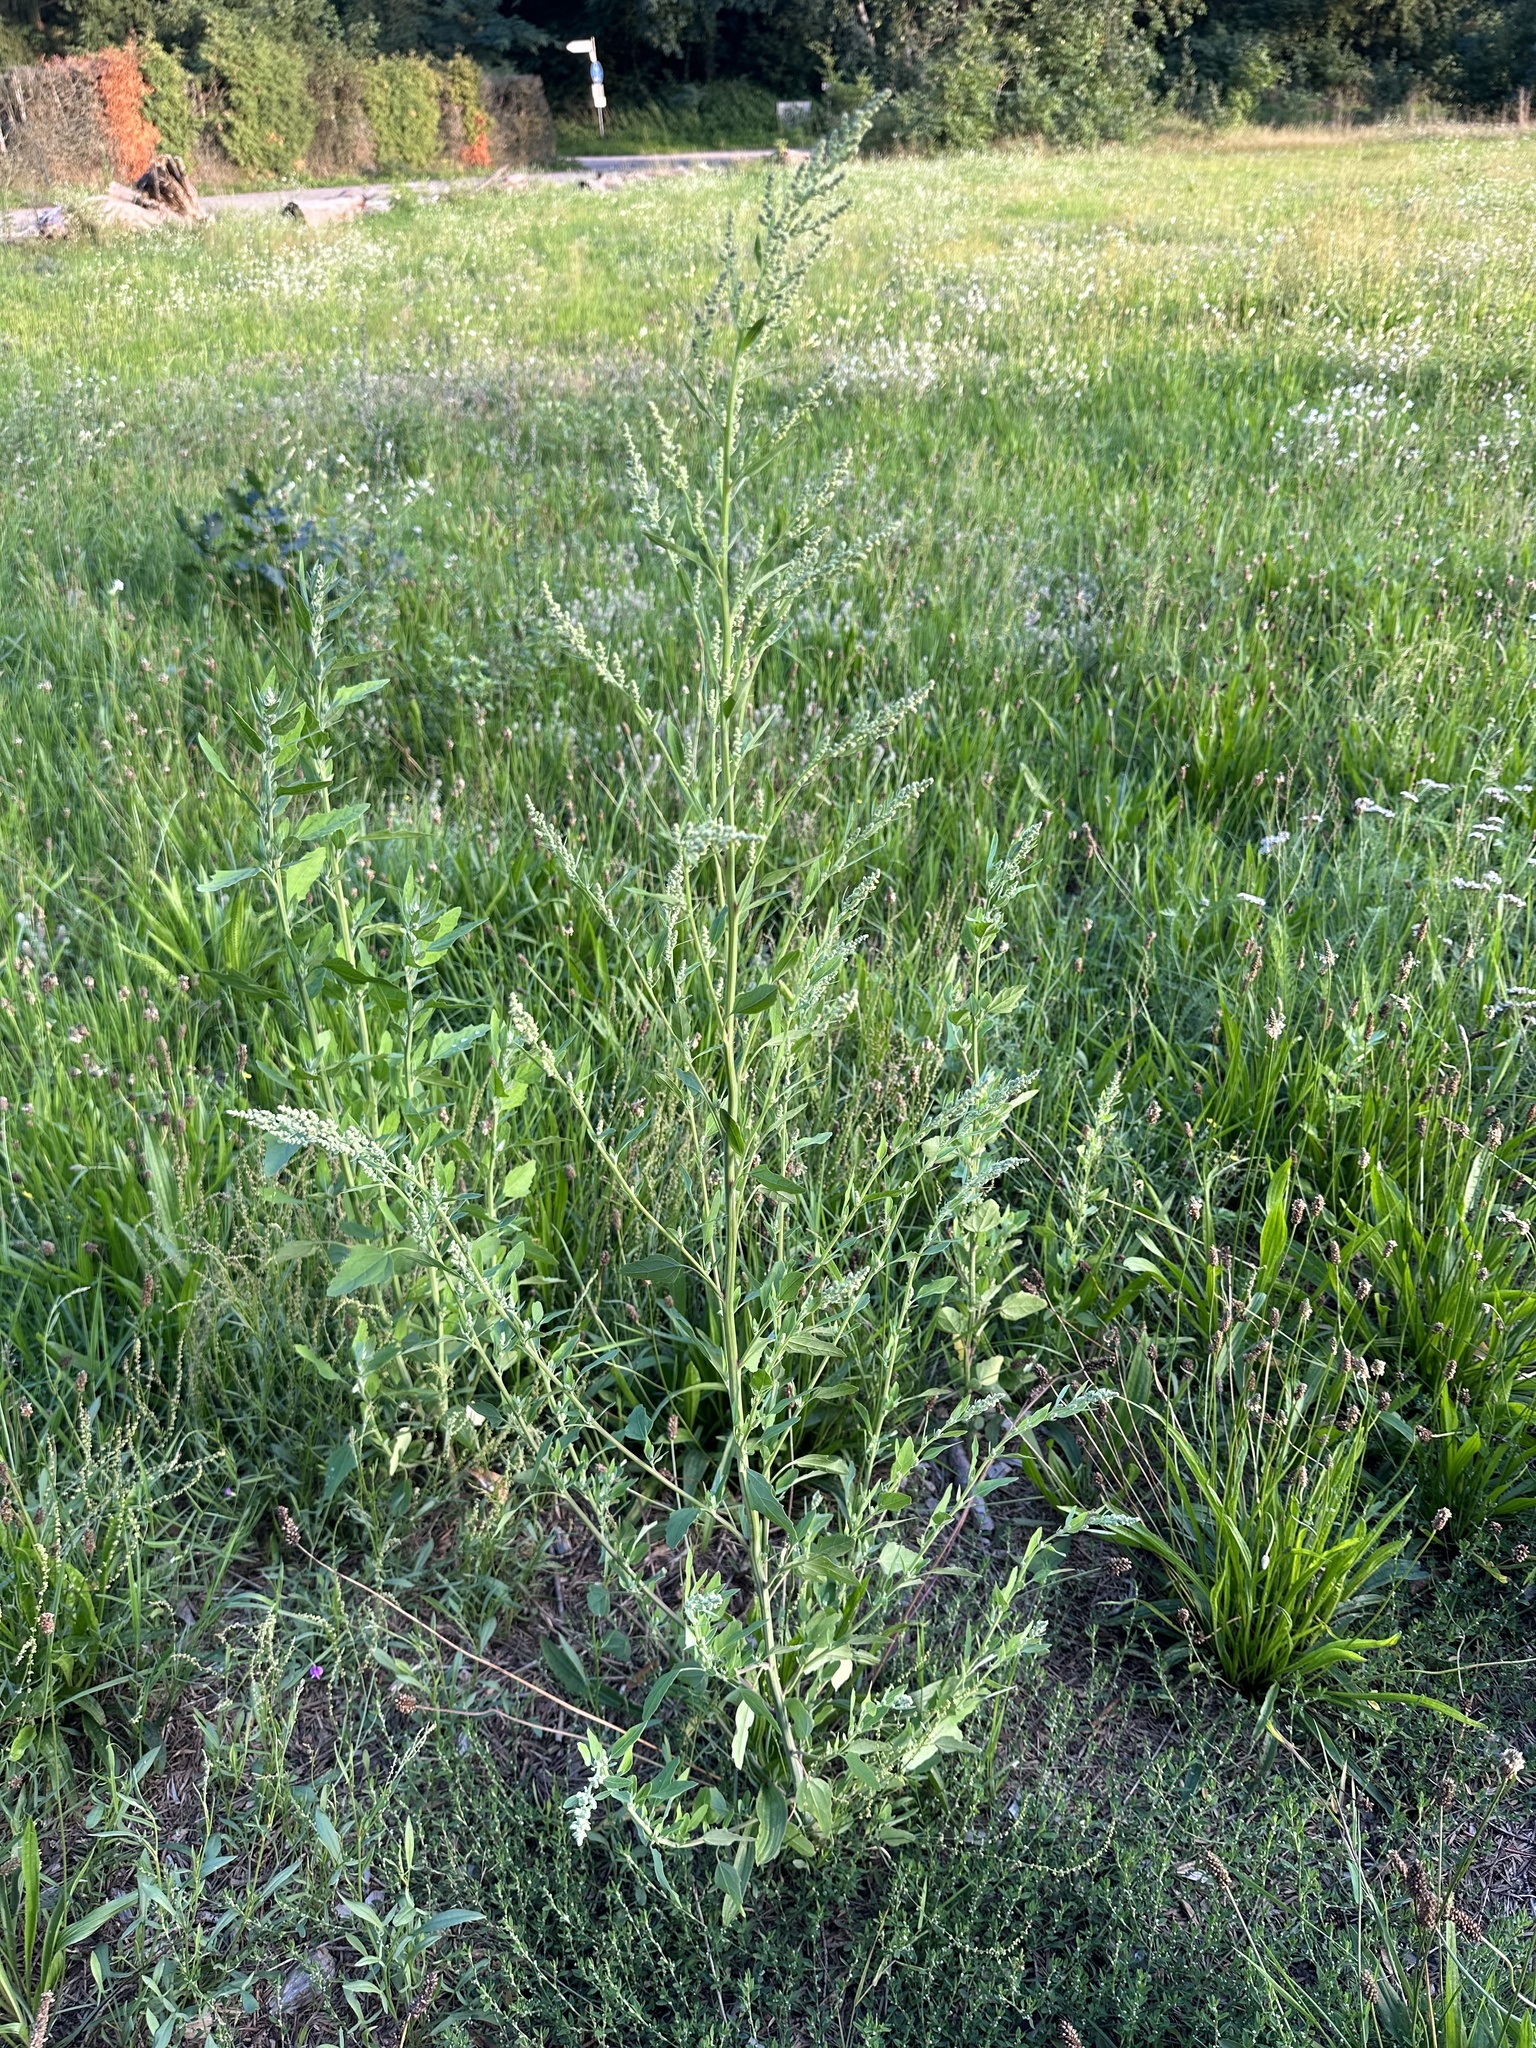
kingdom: Plantae
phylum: Tracheophyta
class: Magnoliopsida
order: Caryophyllales
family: Amaranthaceae
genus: Chenopodium
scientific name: Chenopodium album
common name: Fat-hen
